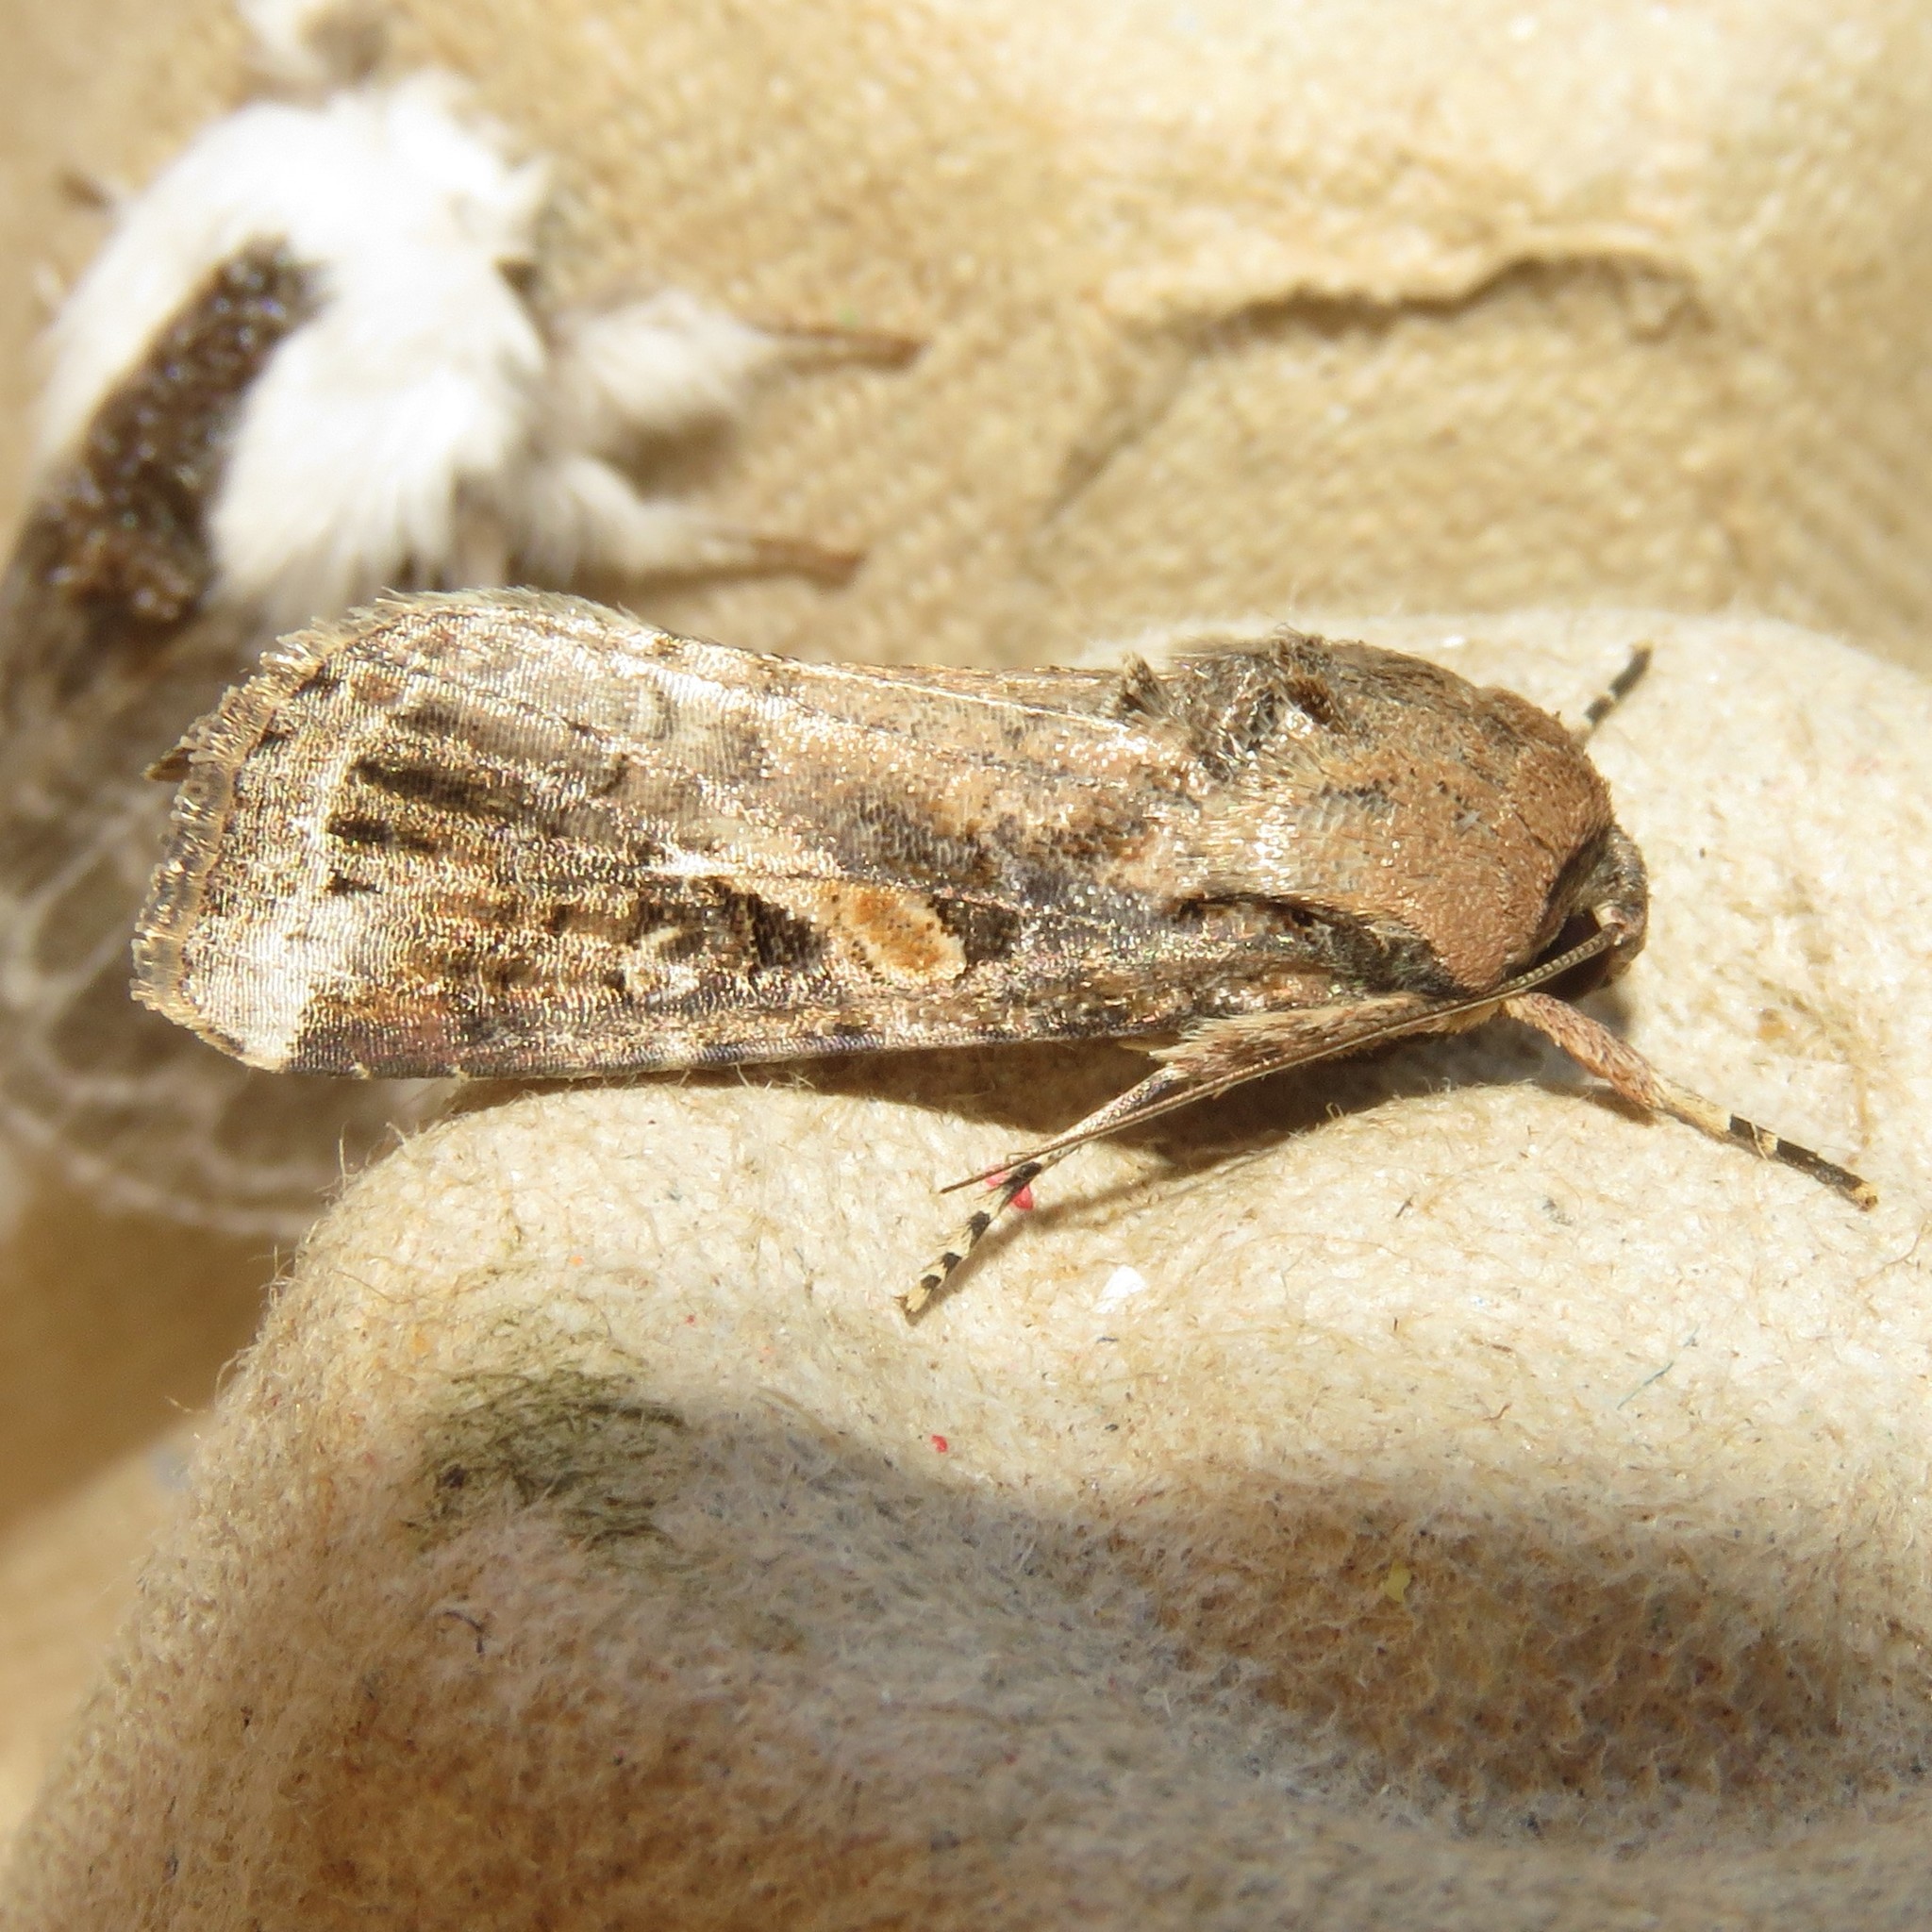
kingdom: Animalia
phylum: Arthropoda
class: Insecta
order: Lepidoptera
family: Noctuidae
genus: Spodoptera
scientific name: Spodoptera frugiperda
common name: Fall armyworm
